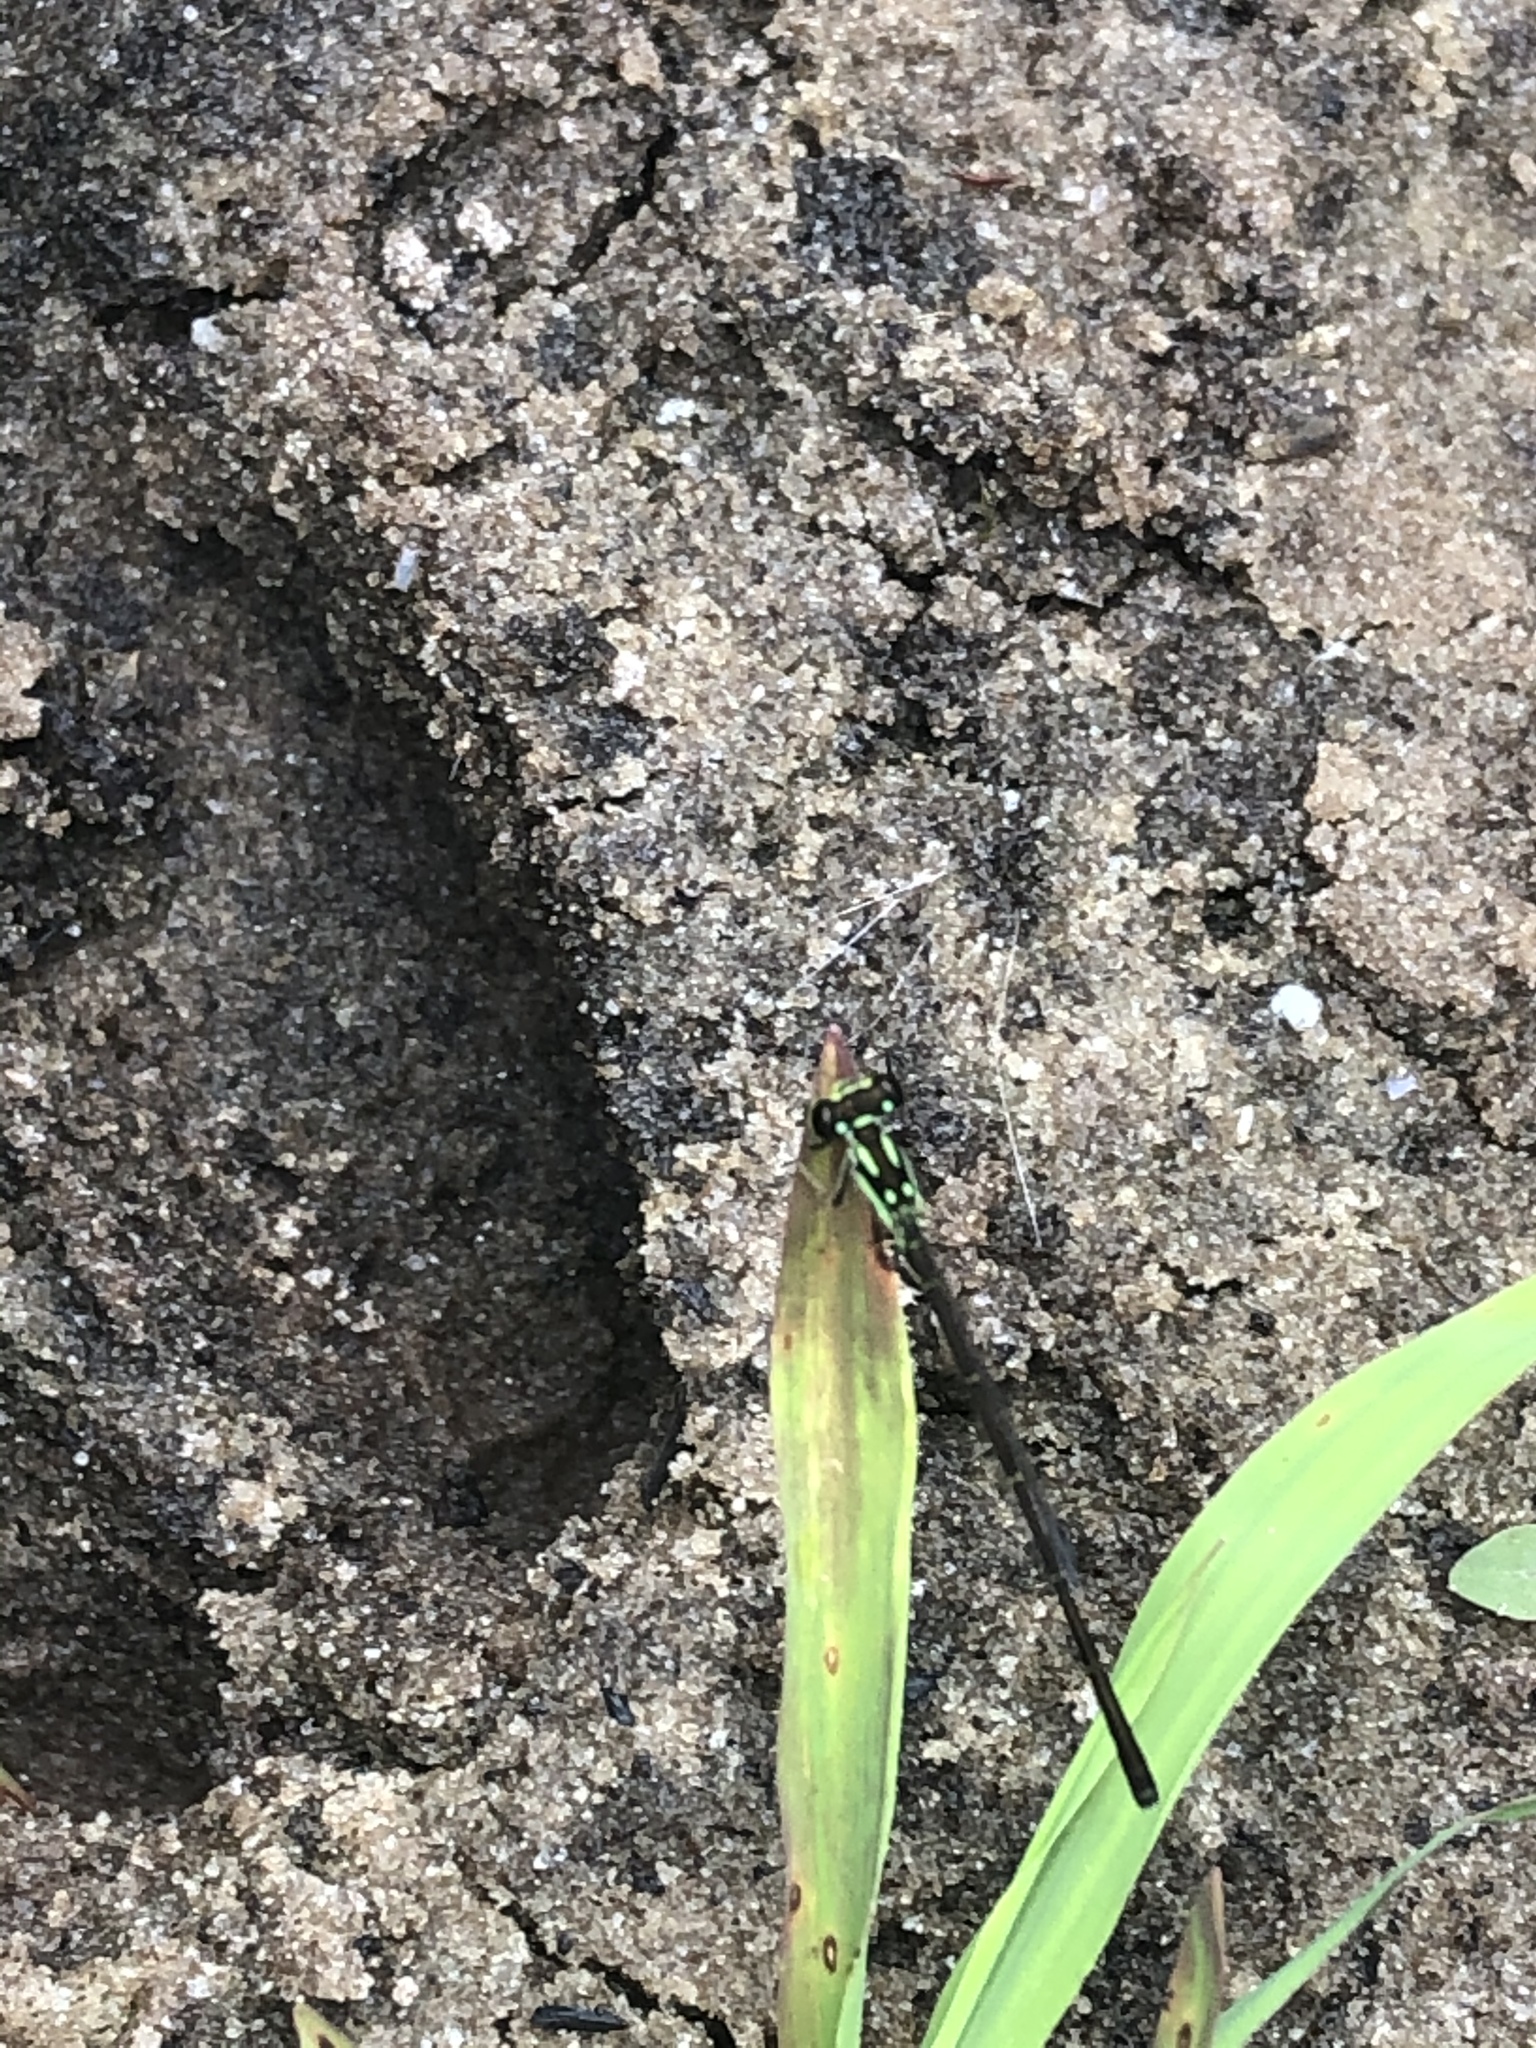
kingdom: Animalia
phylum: Arthropoda
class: Insecta
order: Odonata
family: Coenagrionidae
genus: Ischnura
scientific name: Ischnura posita
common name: Fragile forktail
